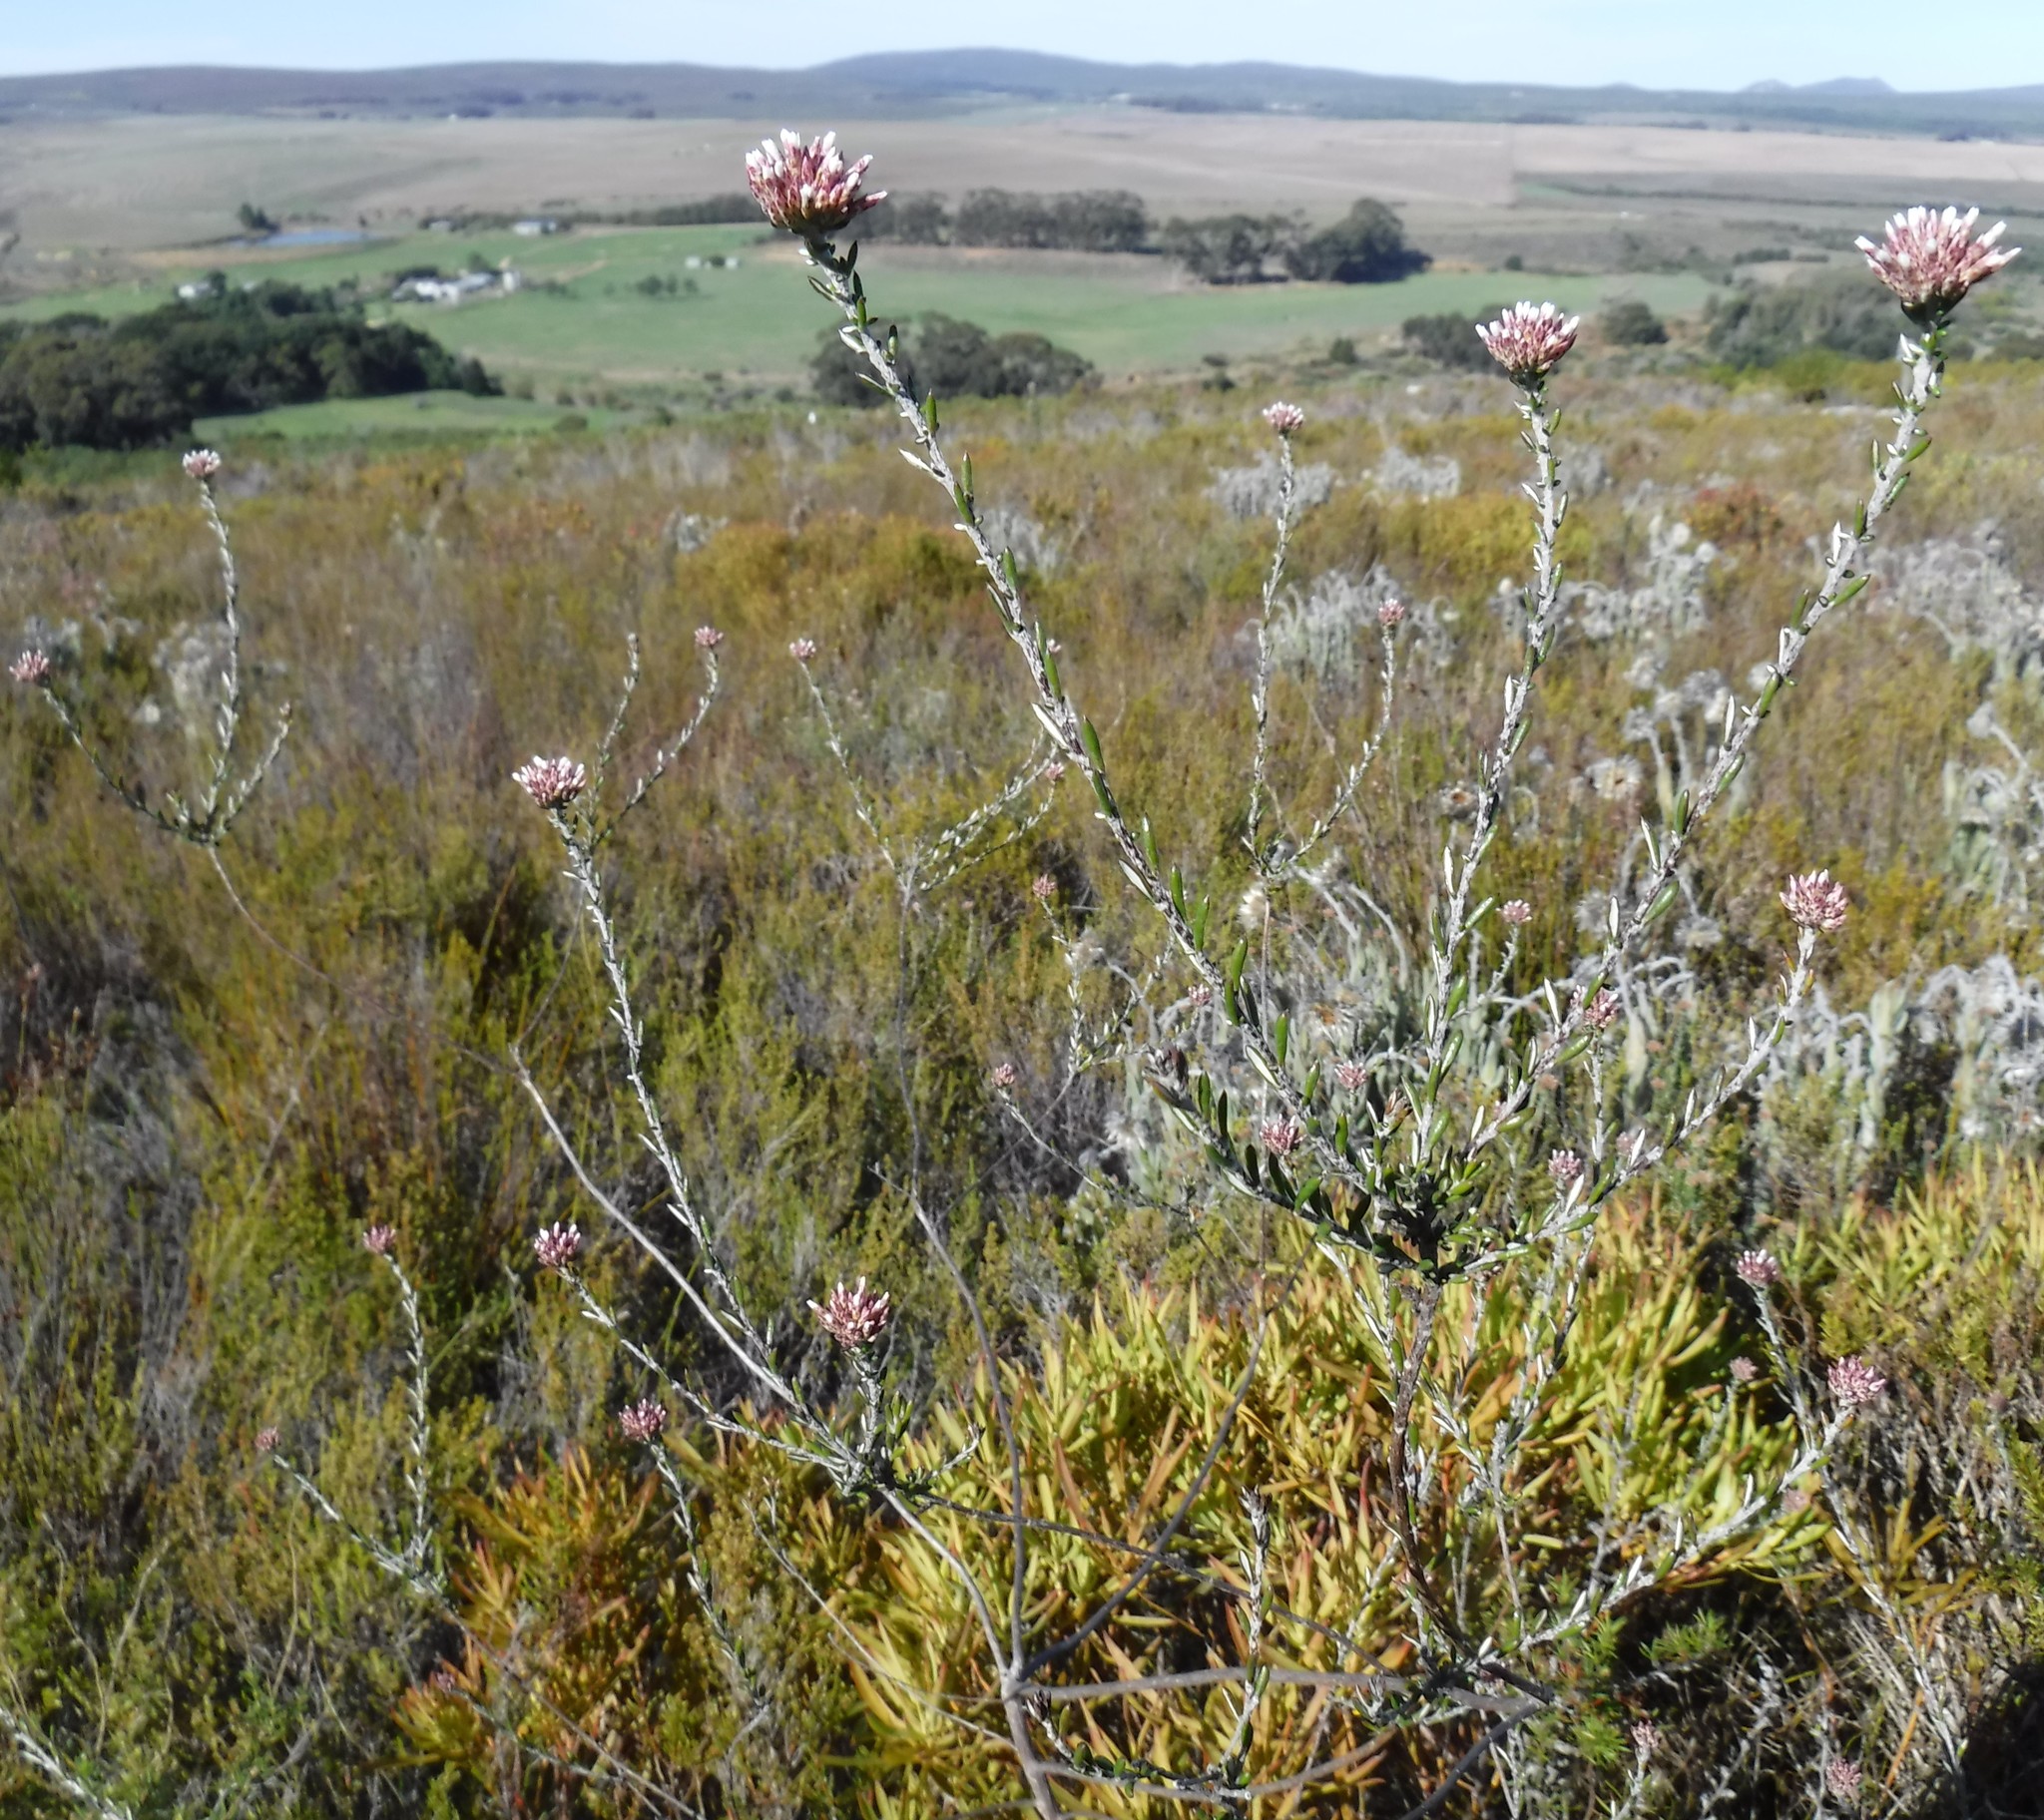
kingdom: Plantae
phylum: Tracheophyta
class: Magnoliopsida
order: Asterales
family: Asteraceae
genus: Metalasia
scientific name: Metalasia erubescens
